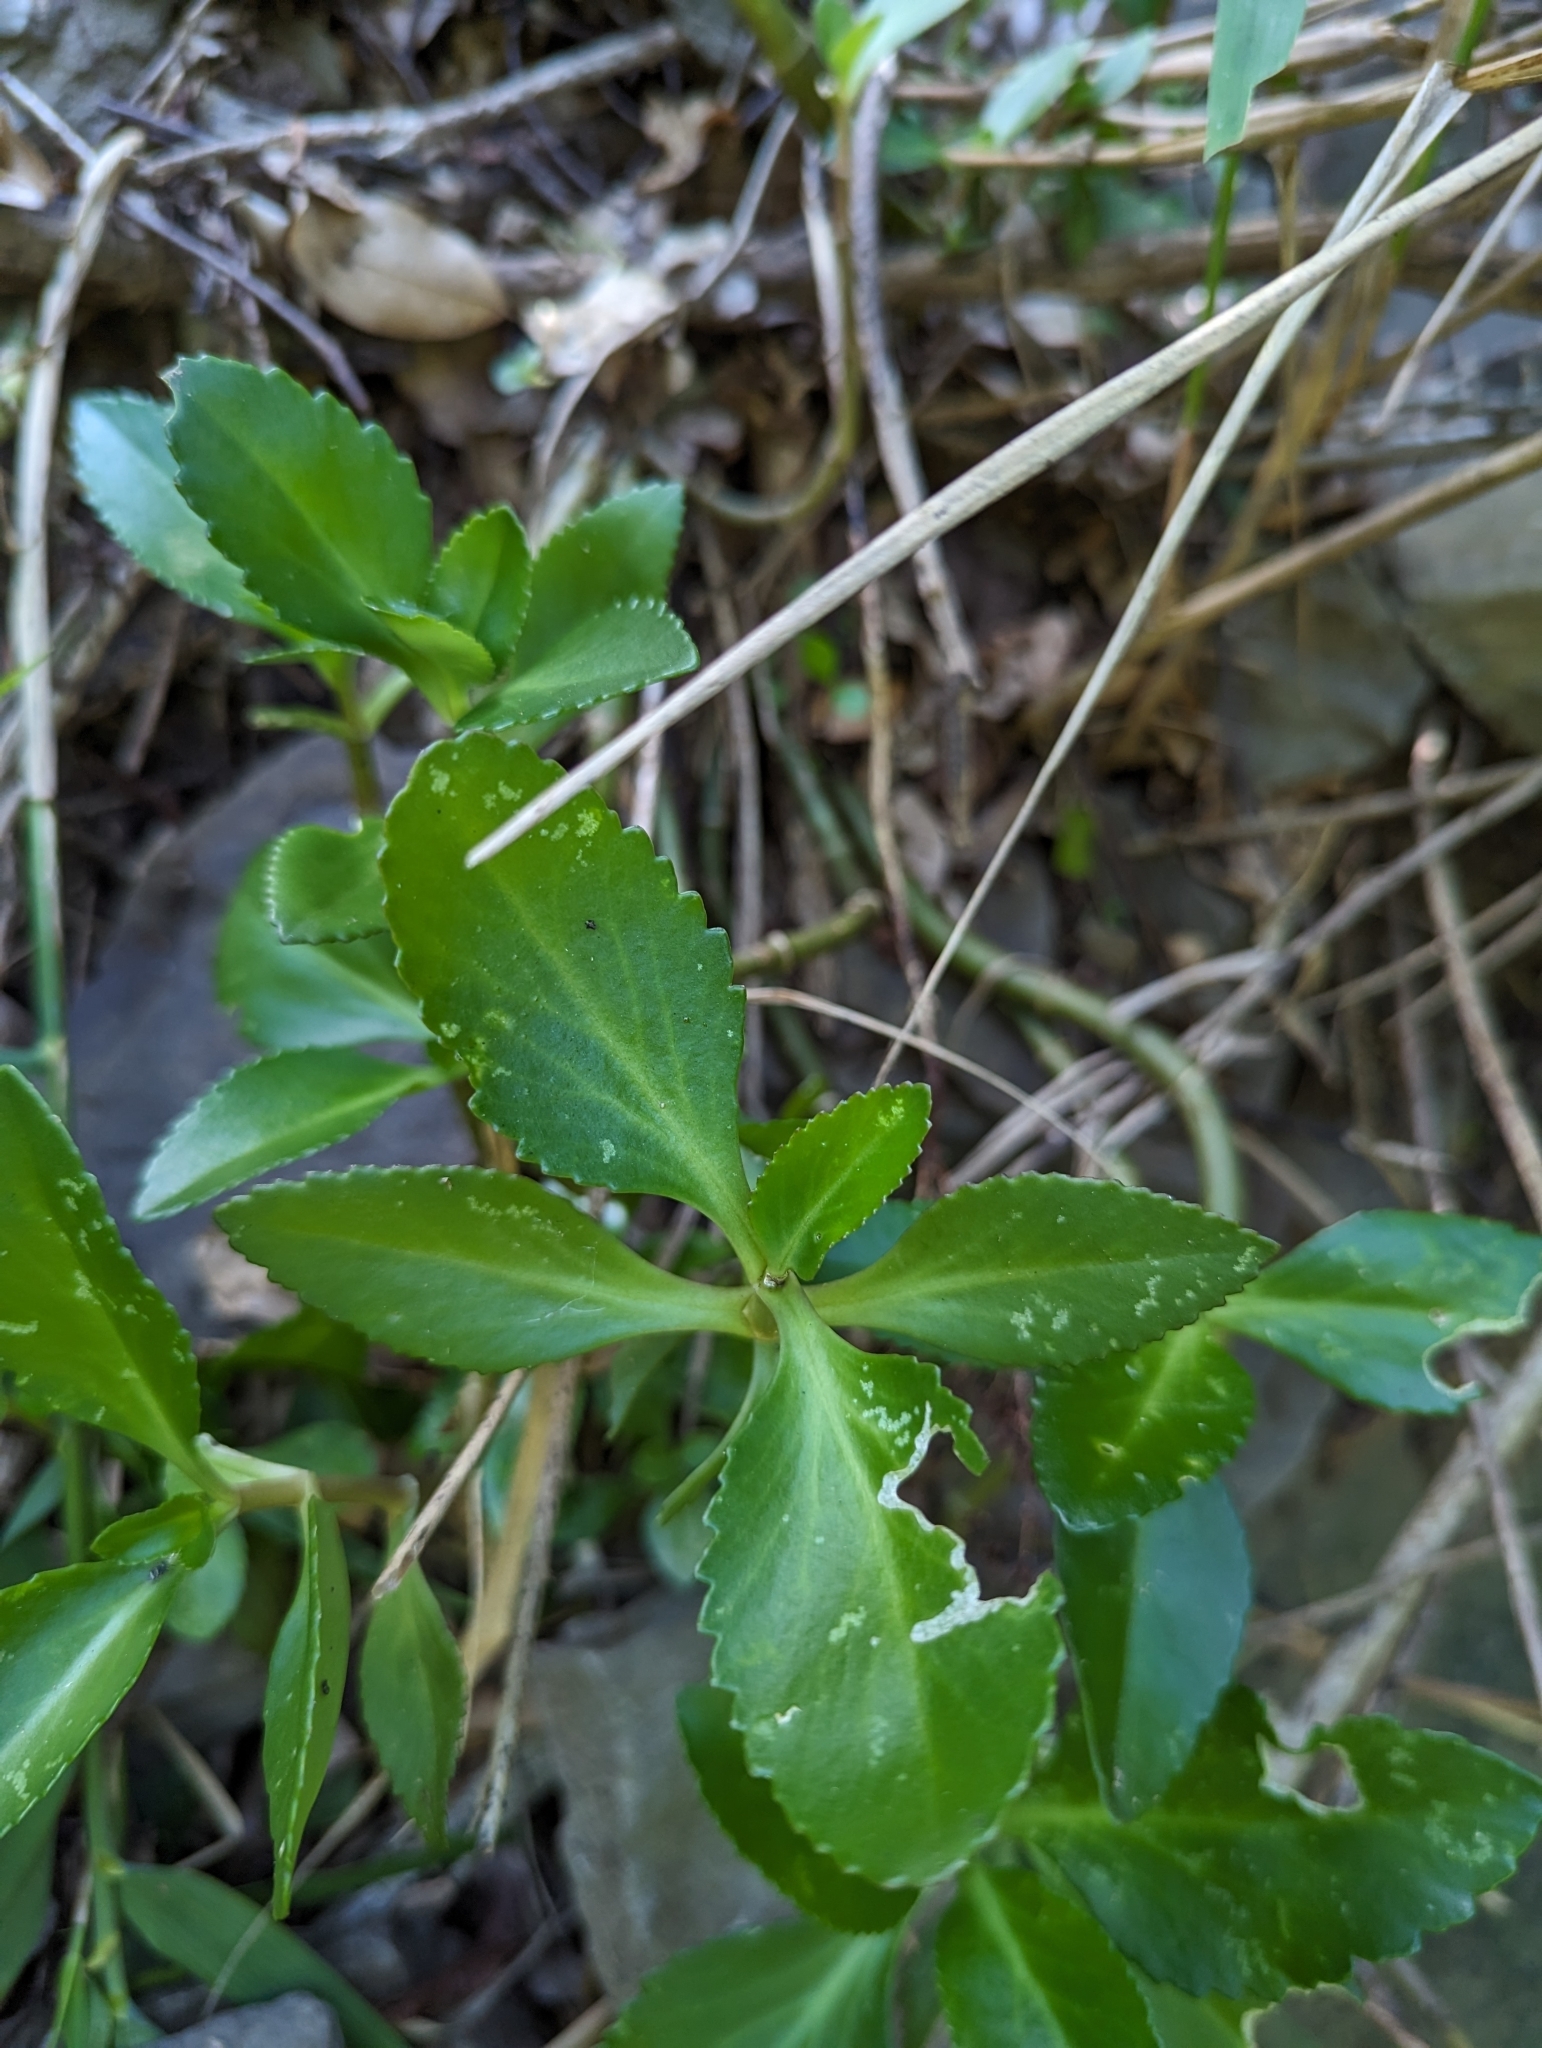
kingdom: Plantae
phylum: Tracheophyta
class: Magnoliopsida
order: Saxifragales
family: Crassulaceae
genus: Kalanchoe
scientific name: Kalanchoe integra
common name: Neverdie
